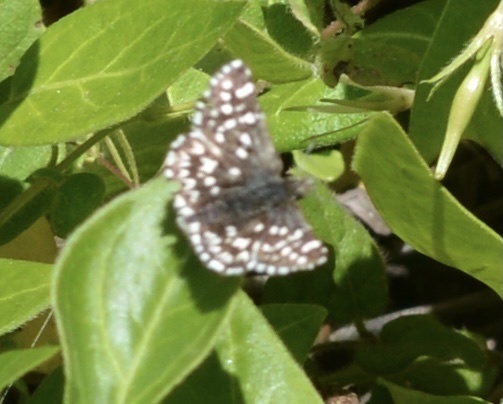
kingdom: Animalia
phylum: Arthropoda
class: Insecta
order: Lepidoptera
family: Hesperiidae
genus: Pyrgus
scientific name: Pyrgus ruralis
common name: Two-banded checkered-skipper
